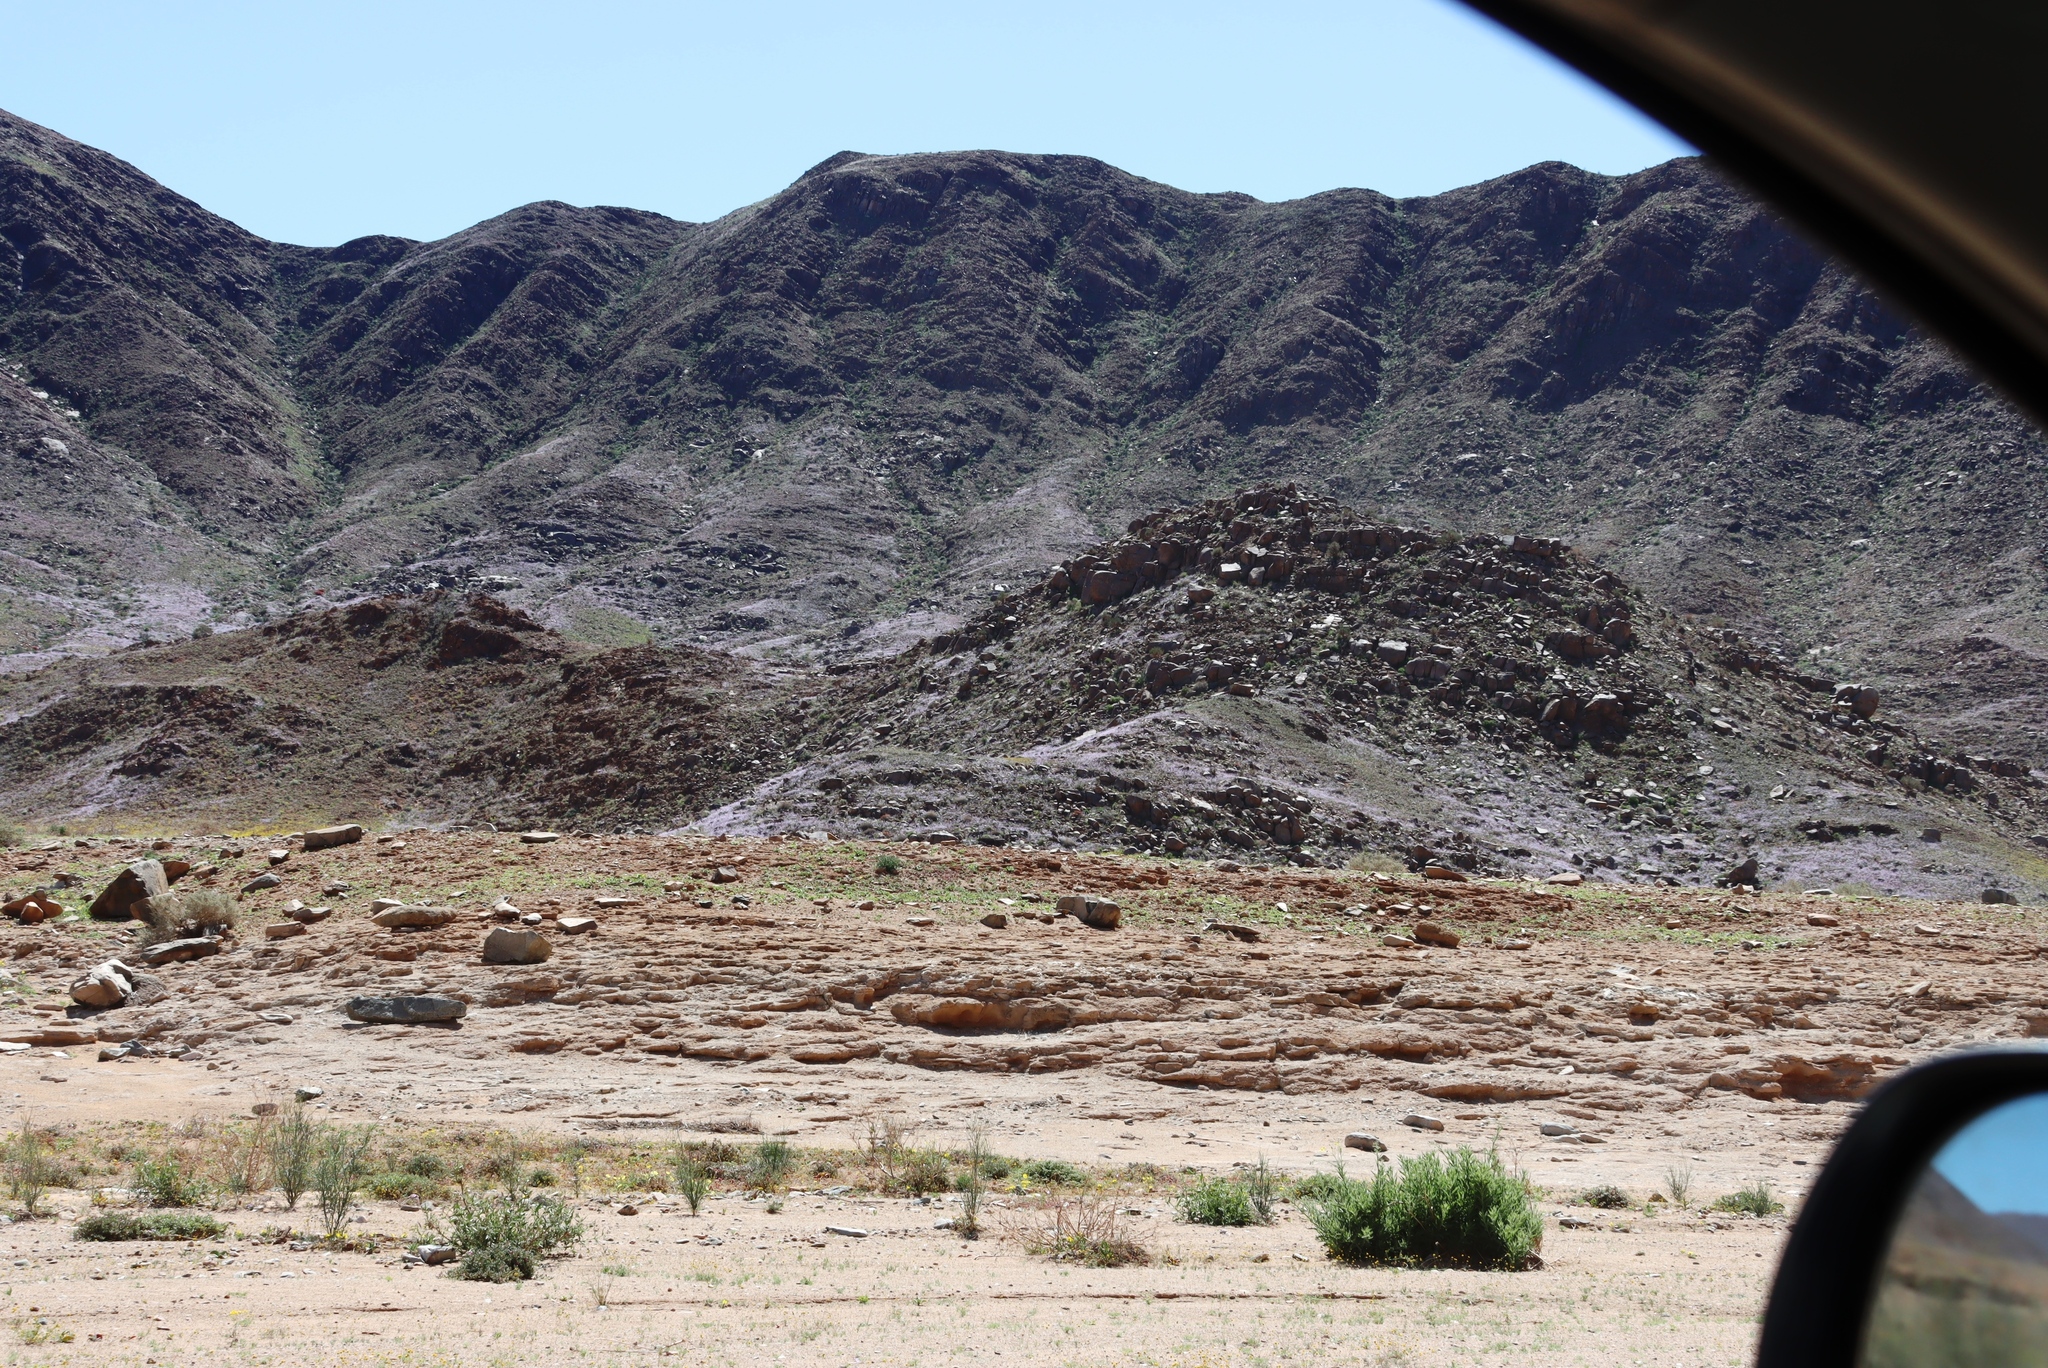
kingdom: Plantae
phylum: Tracheophyta
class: Magnoliopsida
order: Brassicales
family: Brassicaceae
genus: Heliophila
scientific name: Heliophila trifurca
